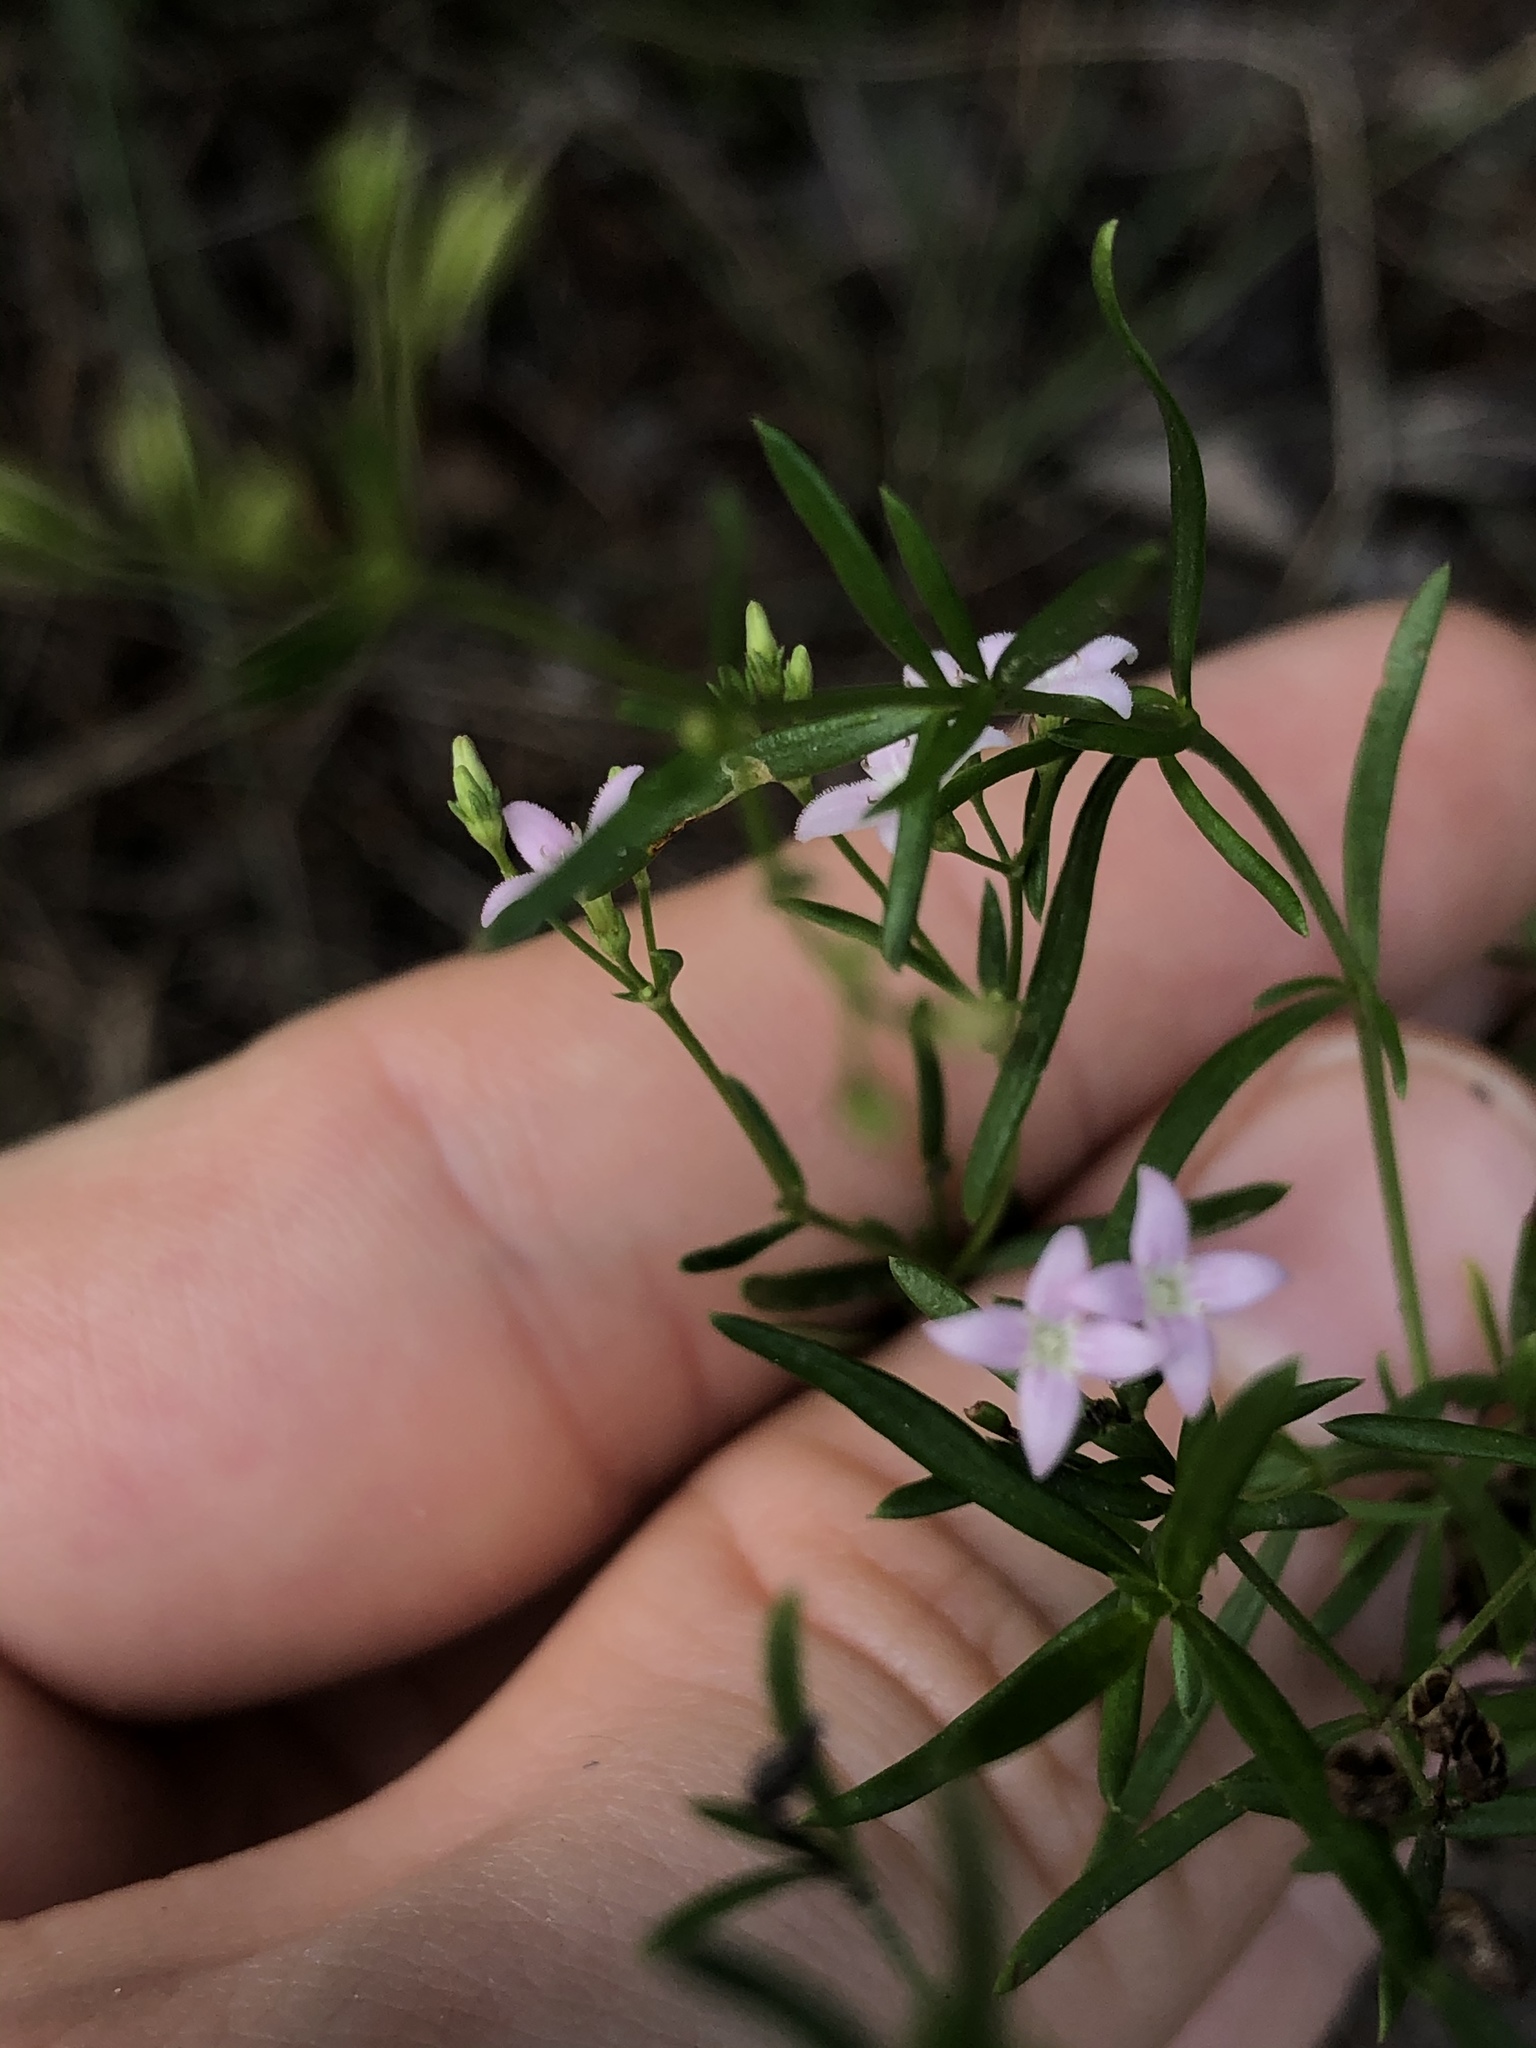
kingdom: Plantae
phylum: Tracheophyta
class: Magnoliopsida
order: Gentianales
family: Rubiaceae
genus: Stenaria
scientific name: Stenaria nigricans
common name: Diamondflowers
